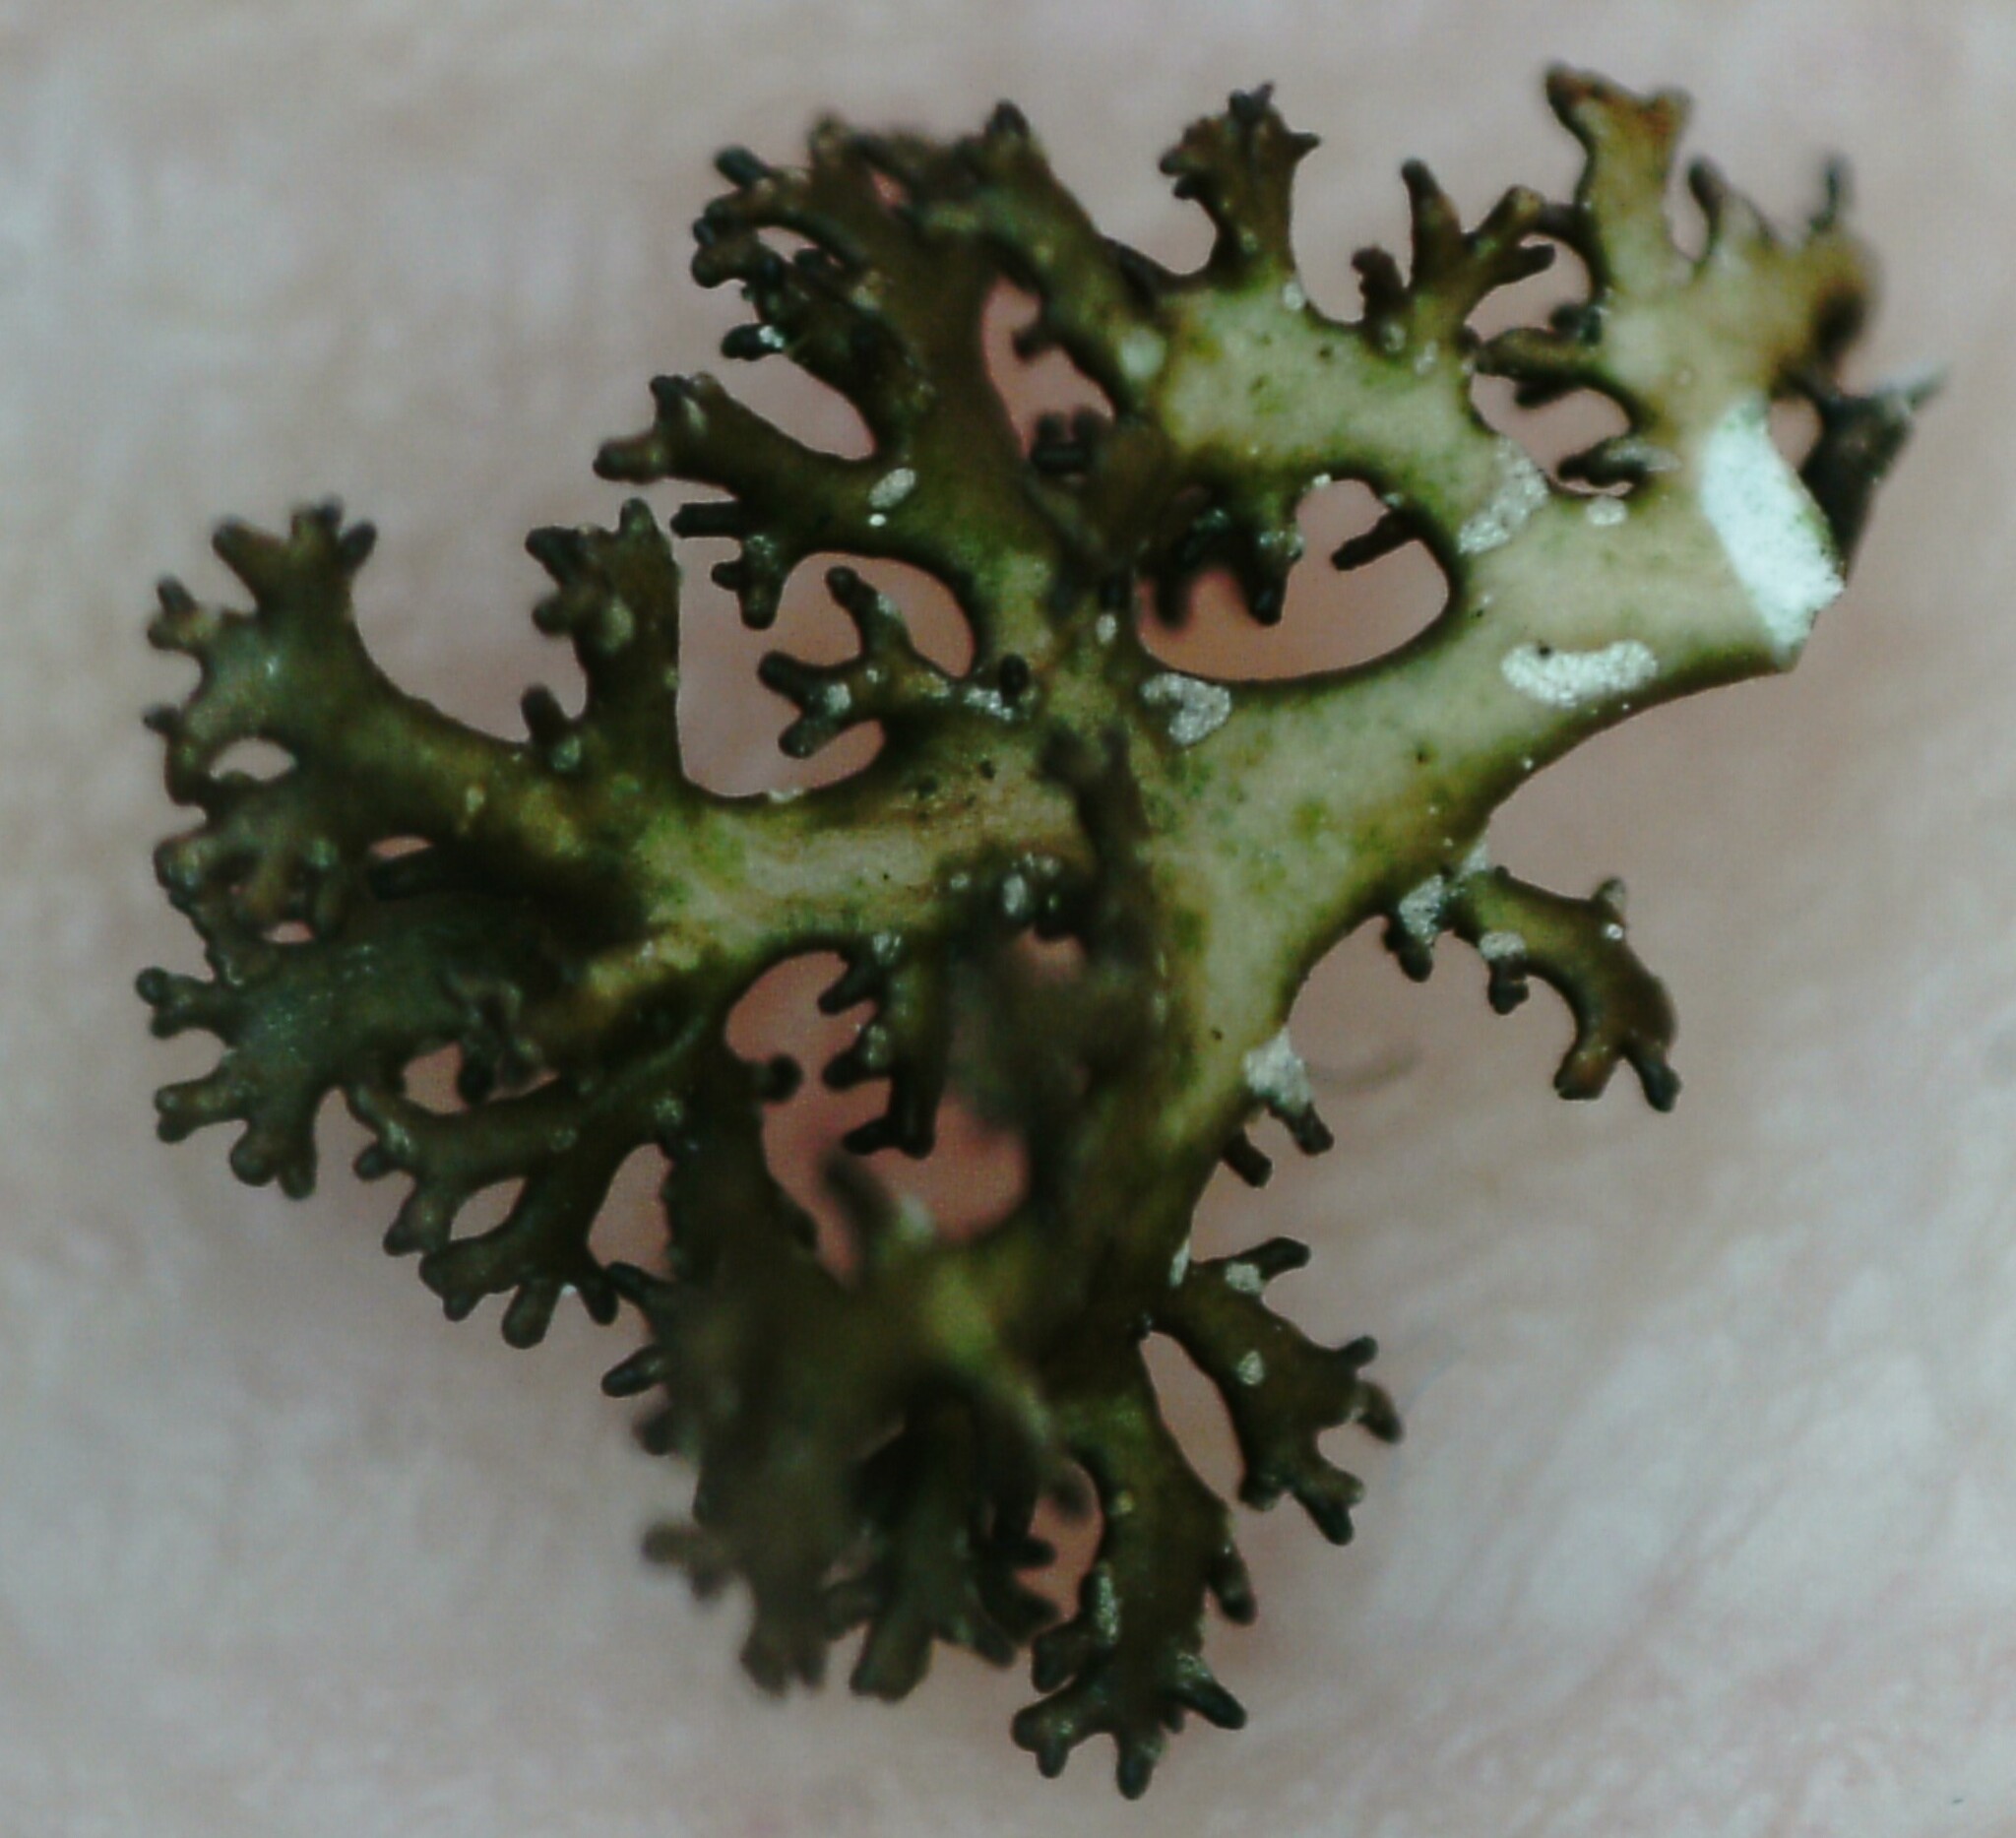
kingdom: Fungi
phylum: Ascomycota
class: Lecanoromycetes
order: Lecanorales
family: Parmeliaceae
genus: Cetraria
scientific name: Cetraria odontella
